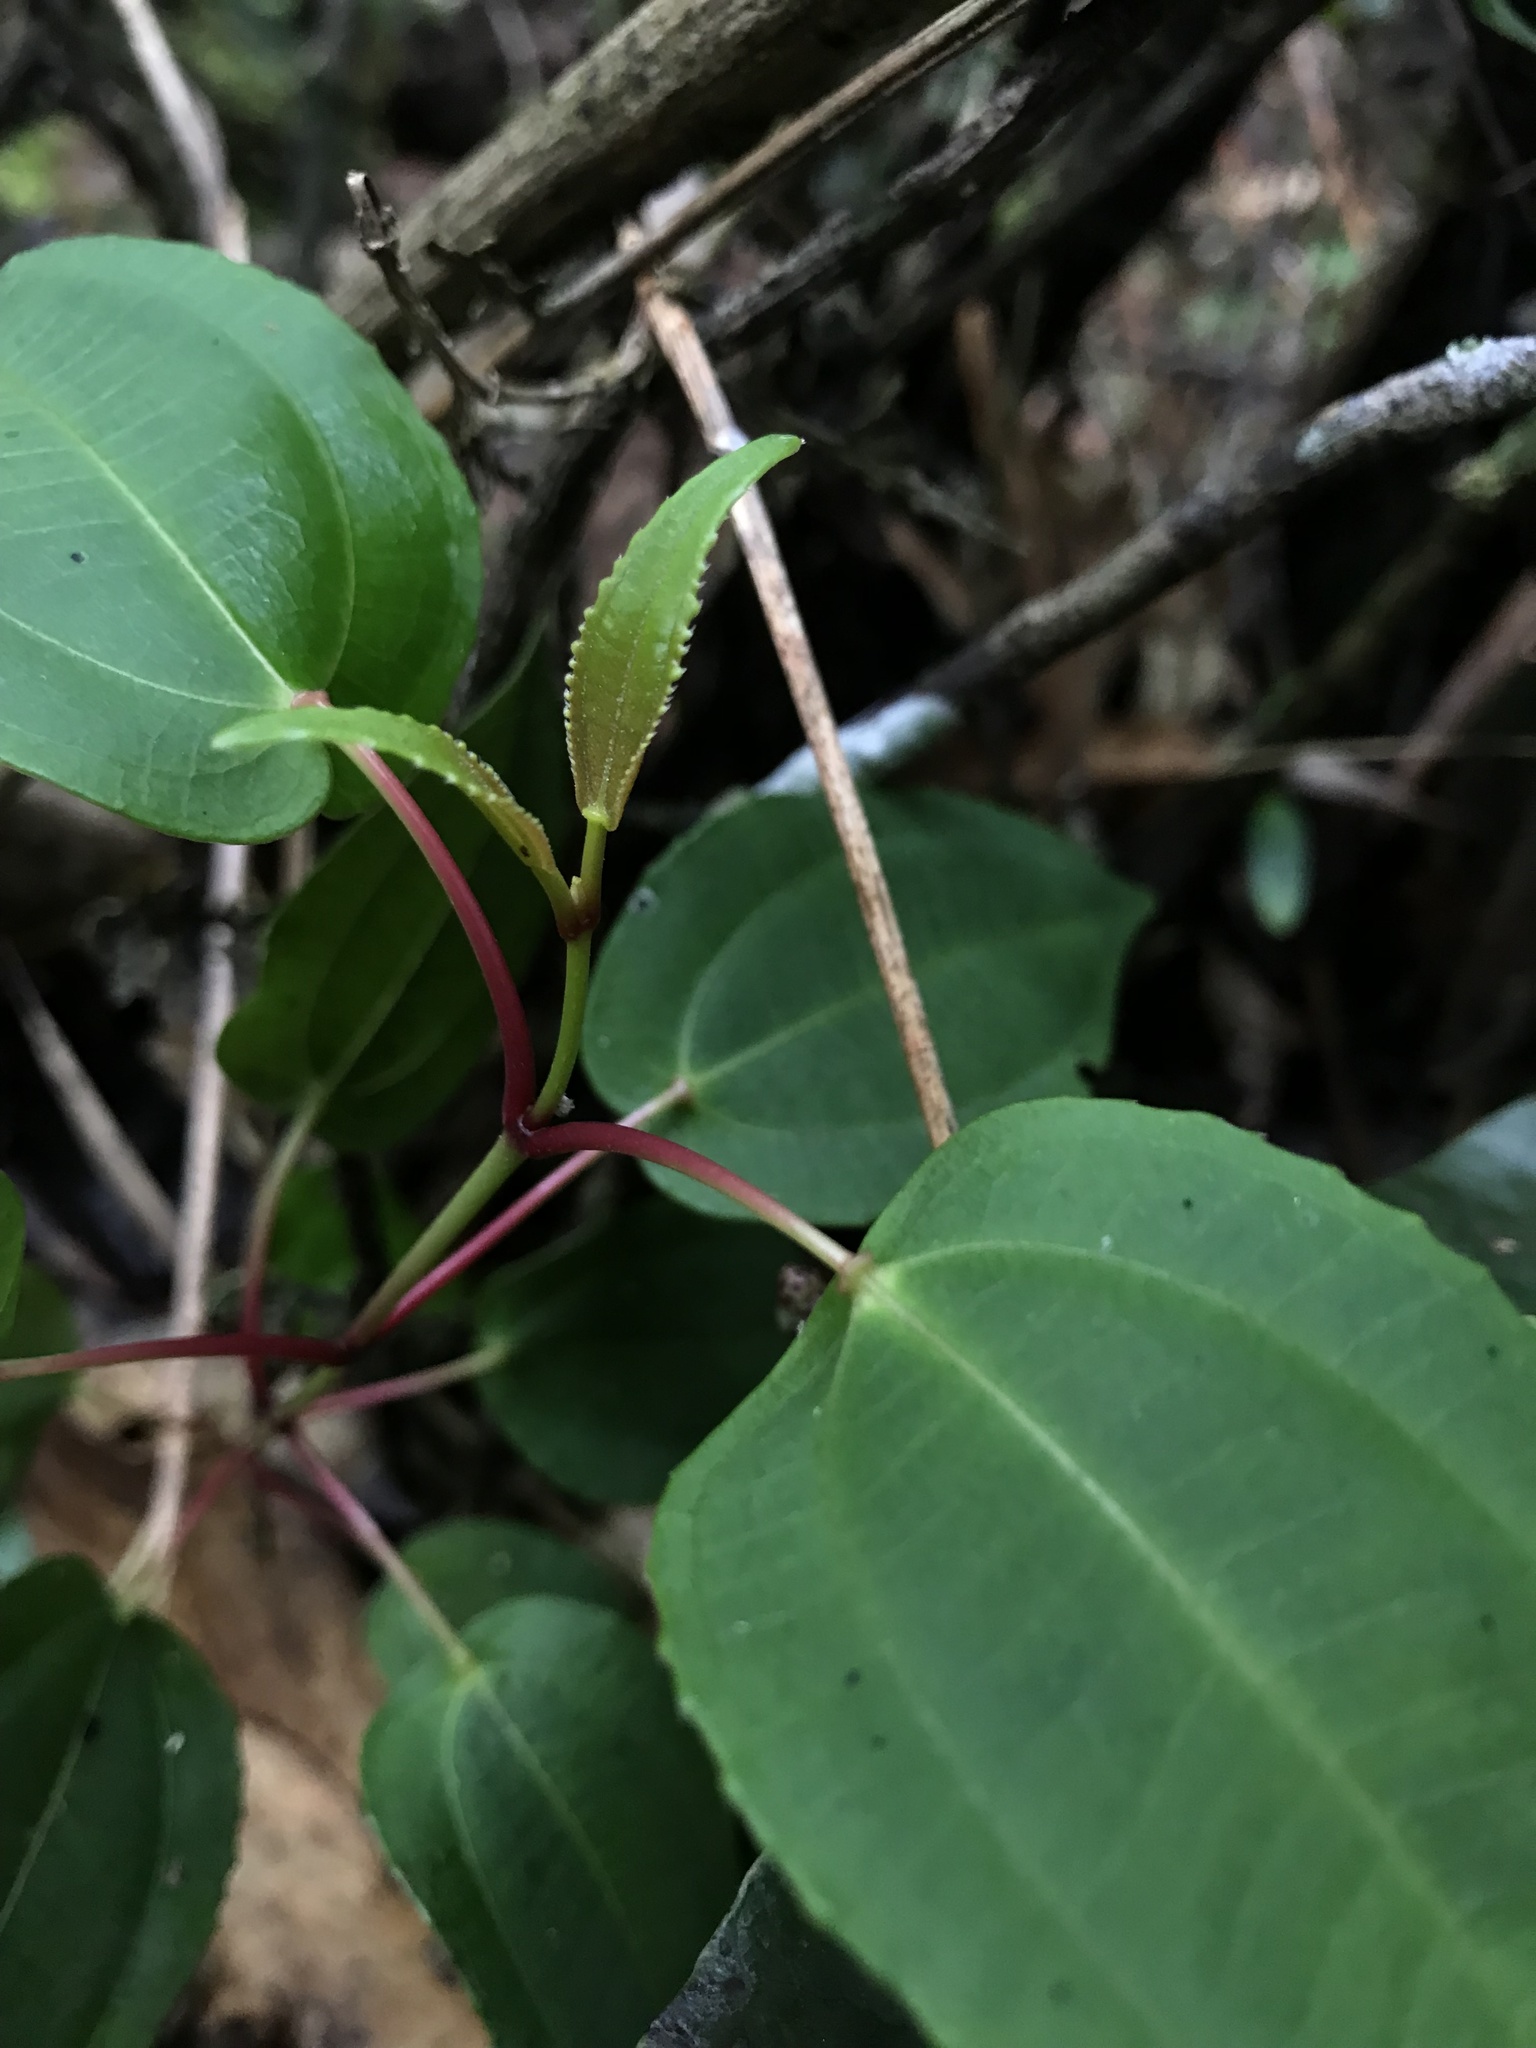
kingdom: Plantae
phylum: Tracheophyta
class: Magnoliopsida
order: Myrtales
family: Melastomataceae
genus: Axinaea
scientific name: Axinaea scutigera
